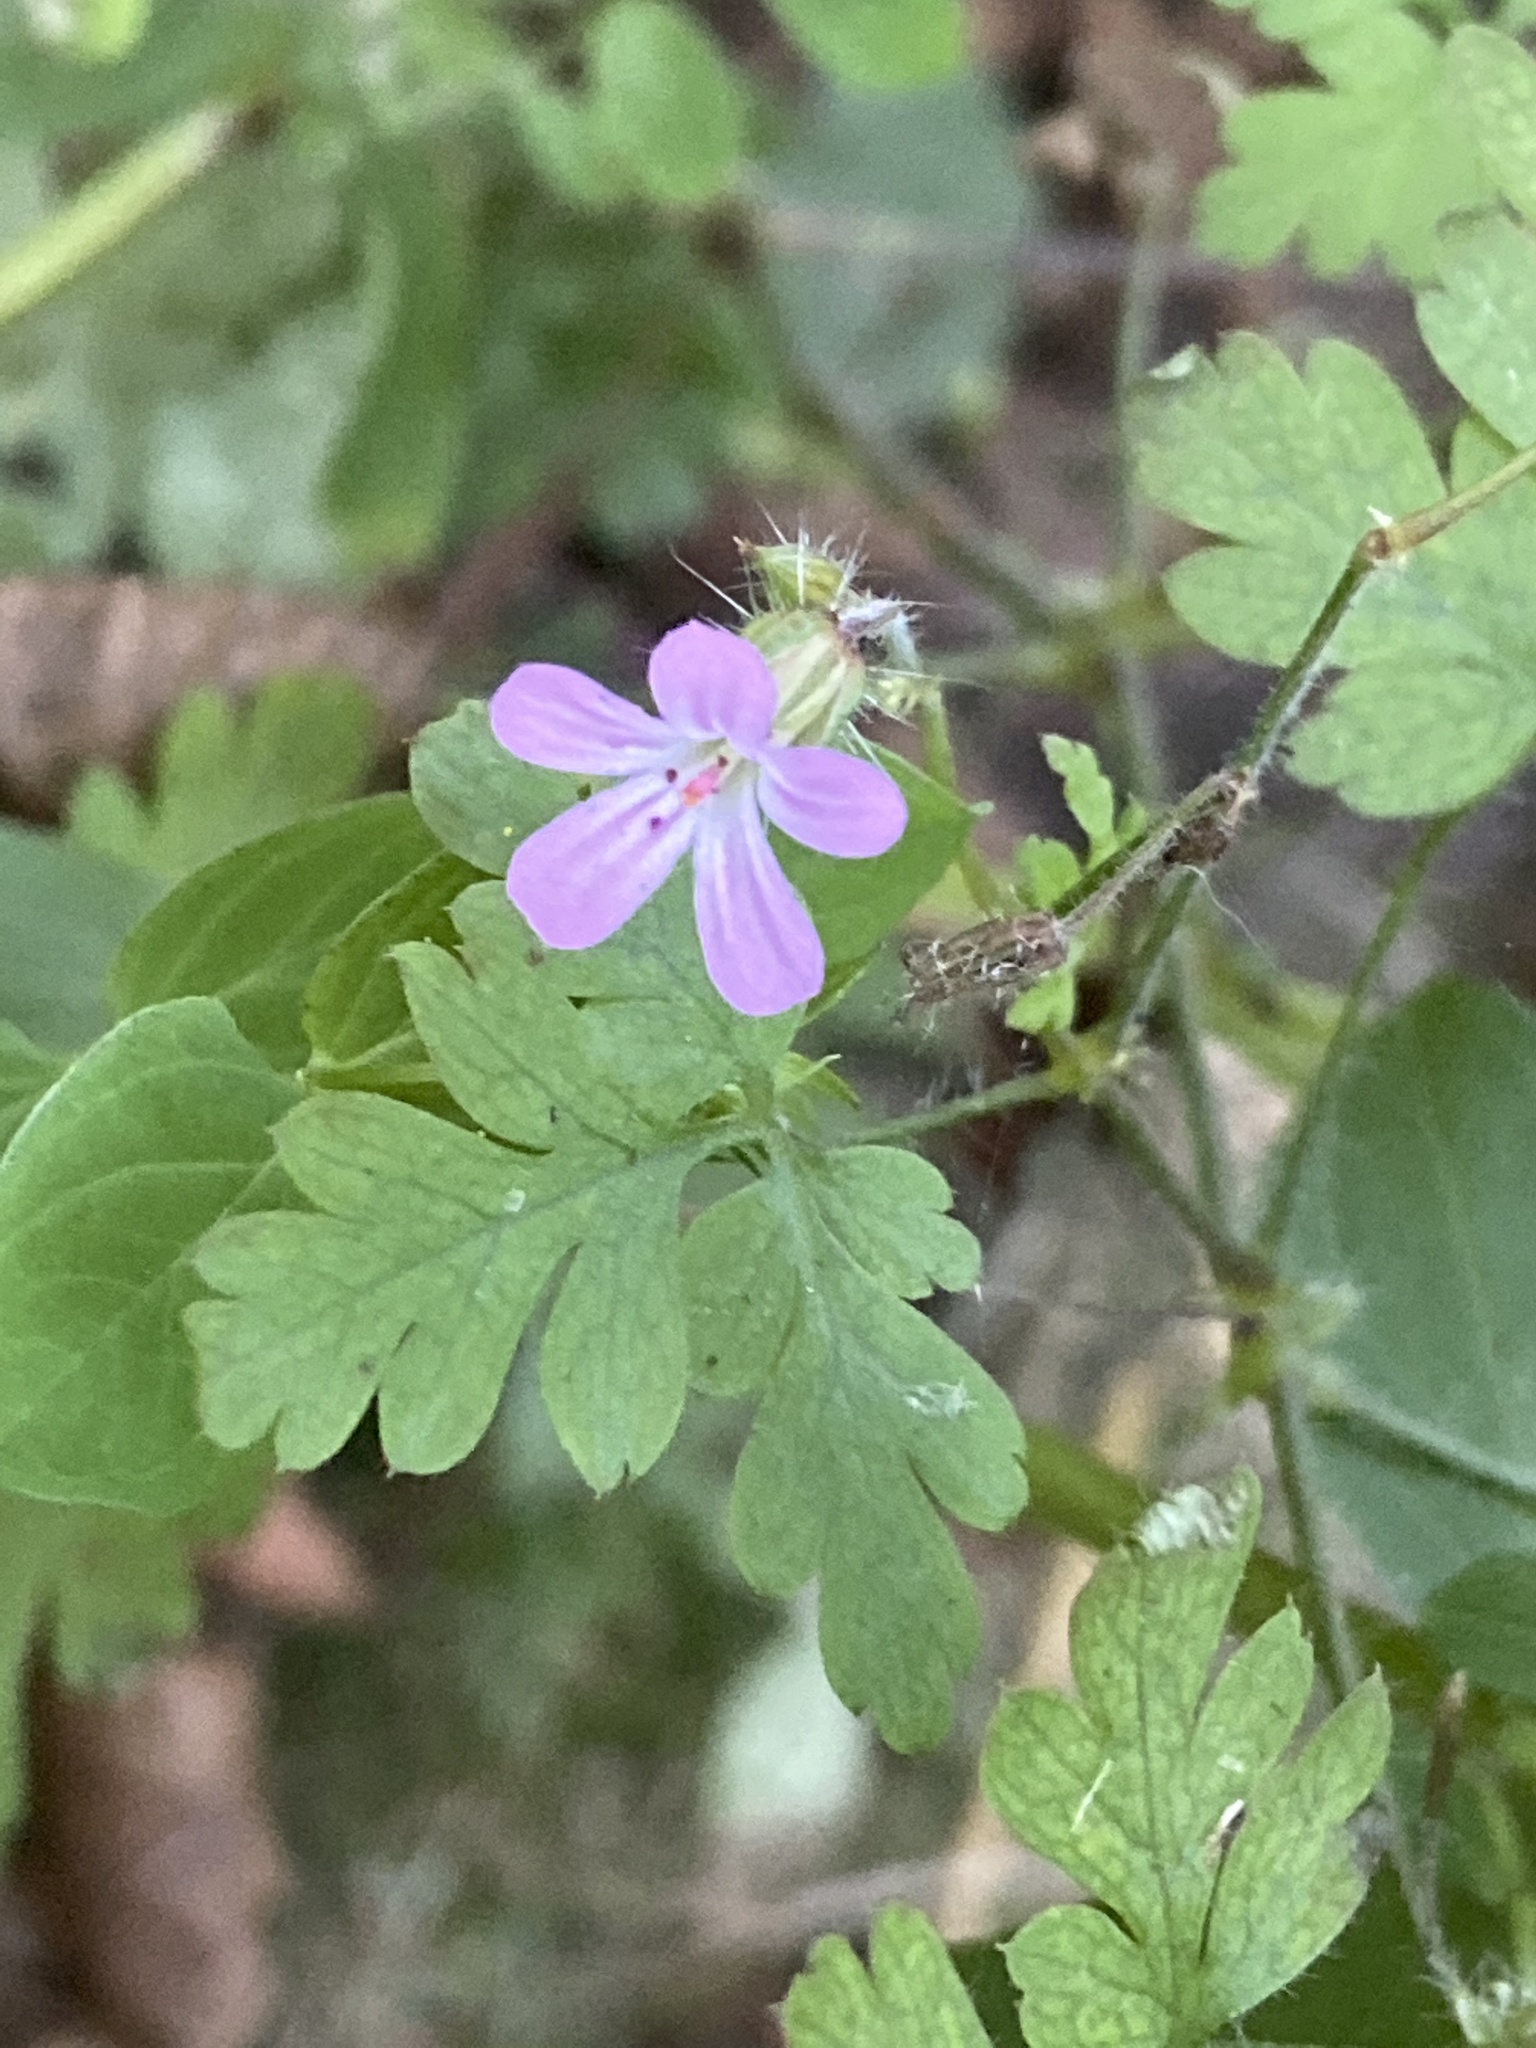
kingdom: Plantae
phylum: Tracheophyta
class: Magnoliopsida
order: Geraniales
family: Geraniaceae
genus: Geranium
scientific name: Geranium robertianum
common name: Herb-robert
